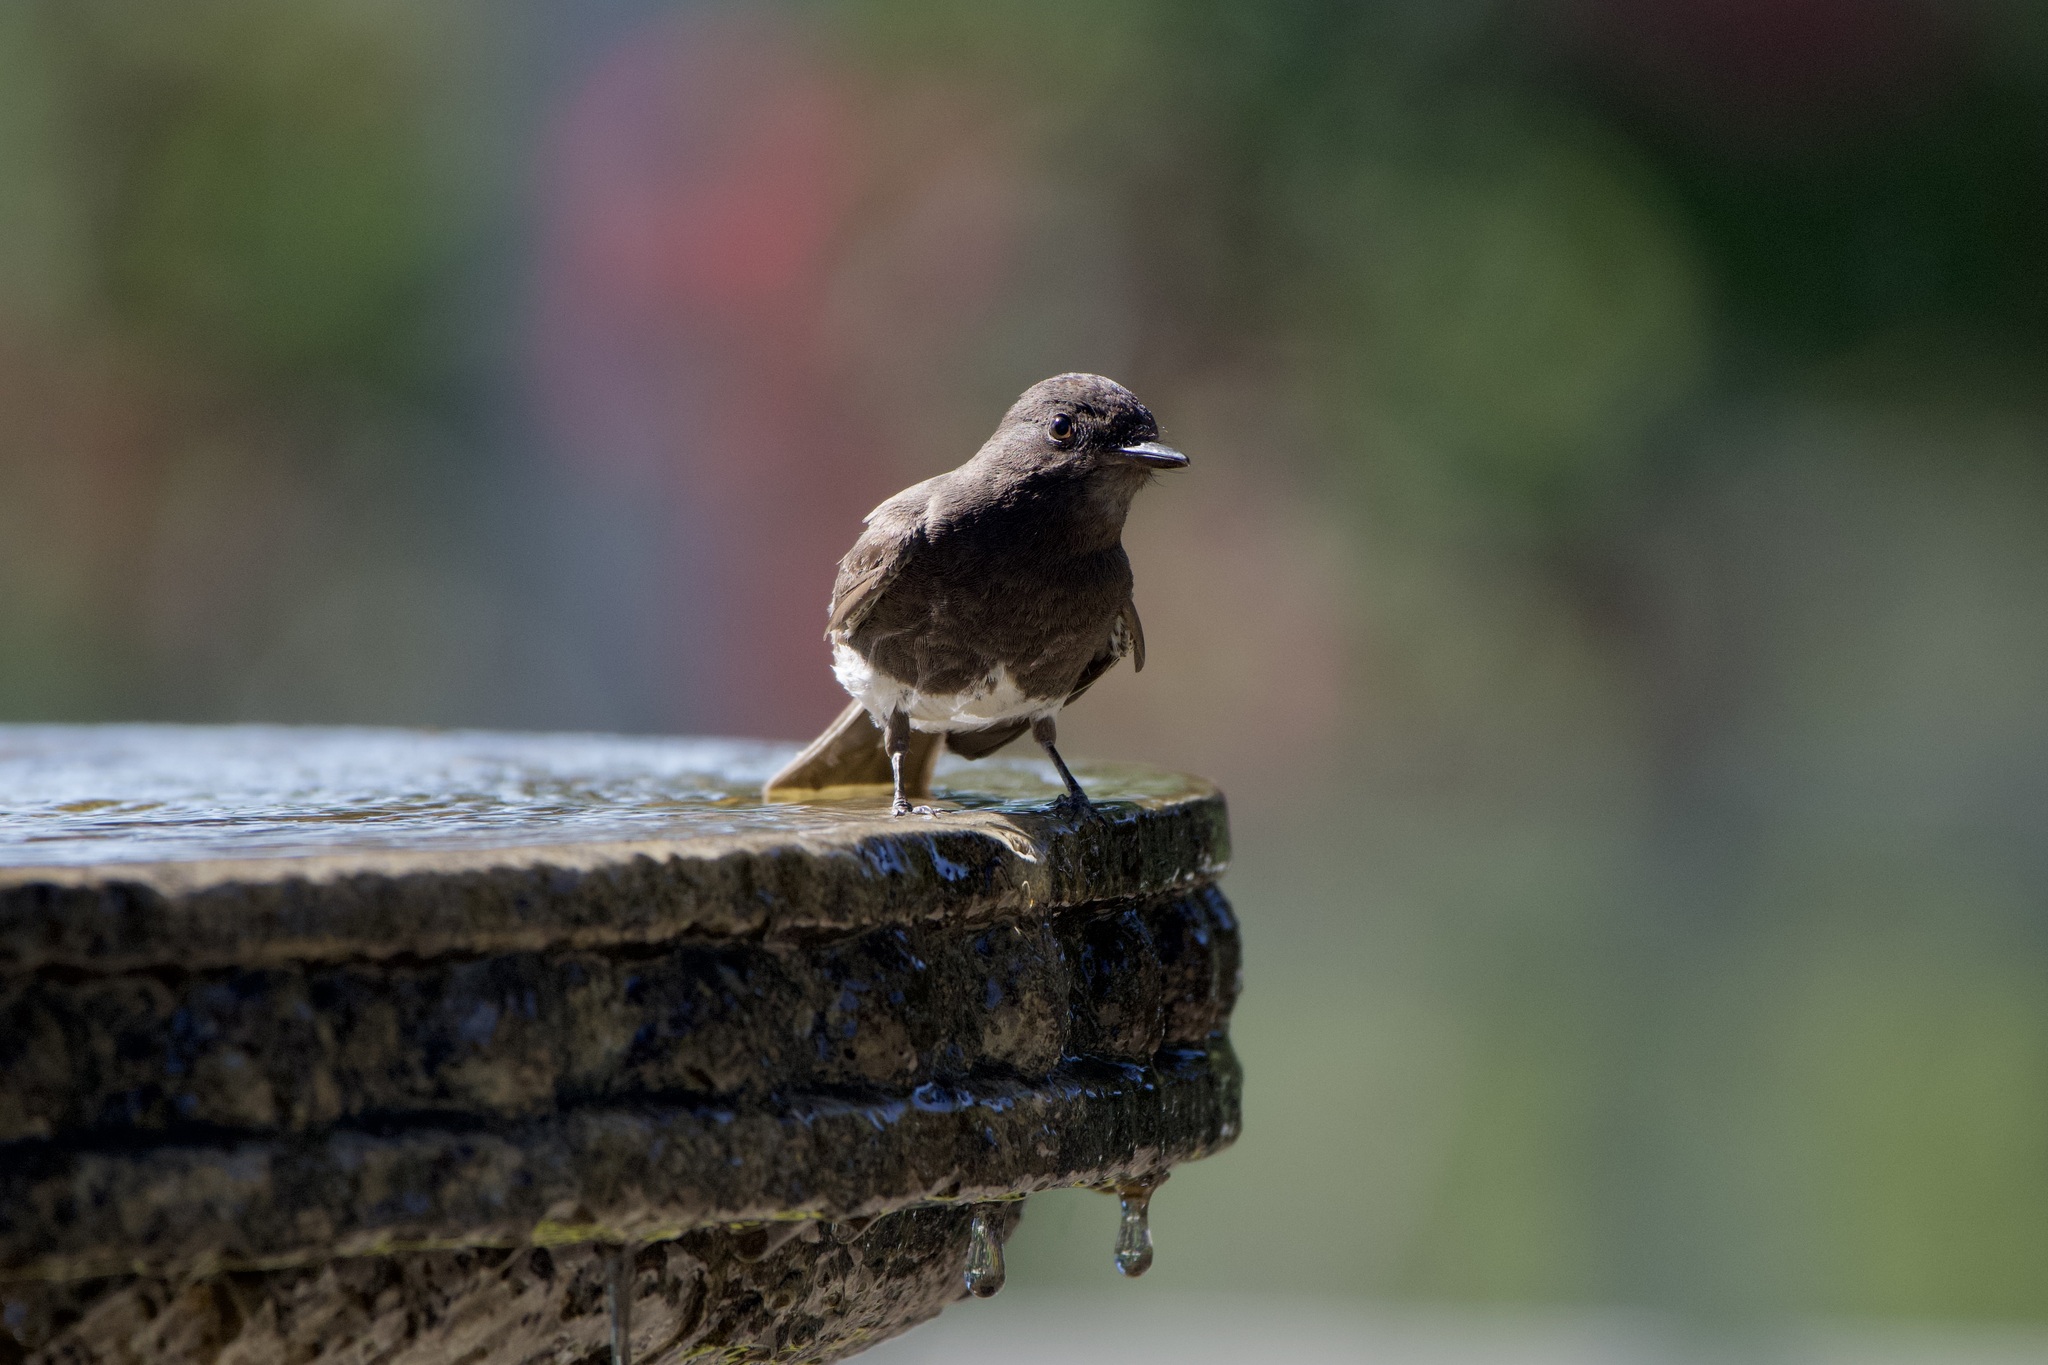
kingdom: Animalia
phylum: Chordata
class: Aves
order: Passeriformes
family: Tyrannidae
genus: Sayornis
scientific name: Sayornis nigricans
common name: Black phoebe
